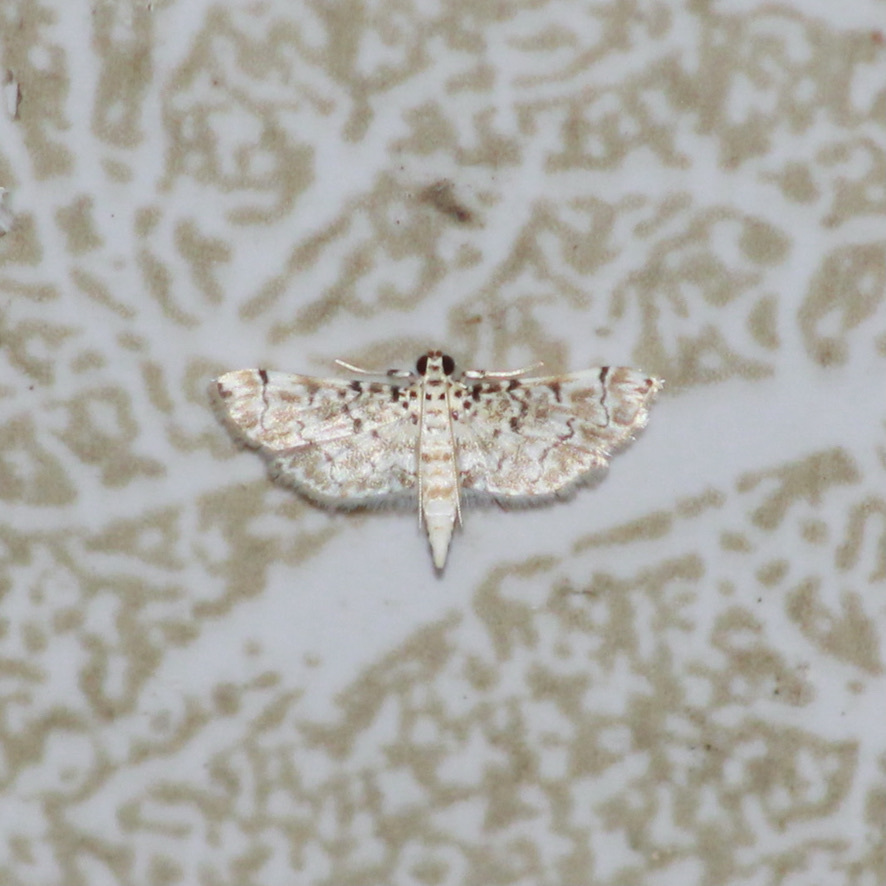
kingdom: Animalia
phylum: Arthropoda
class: Insecta
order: Lepidoptera
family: Crambidae
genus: Metoeca
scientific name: Metoeca foedalis
